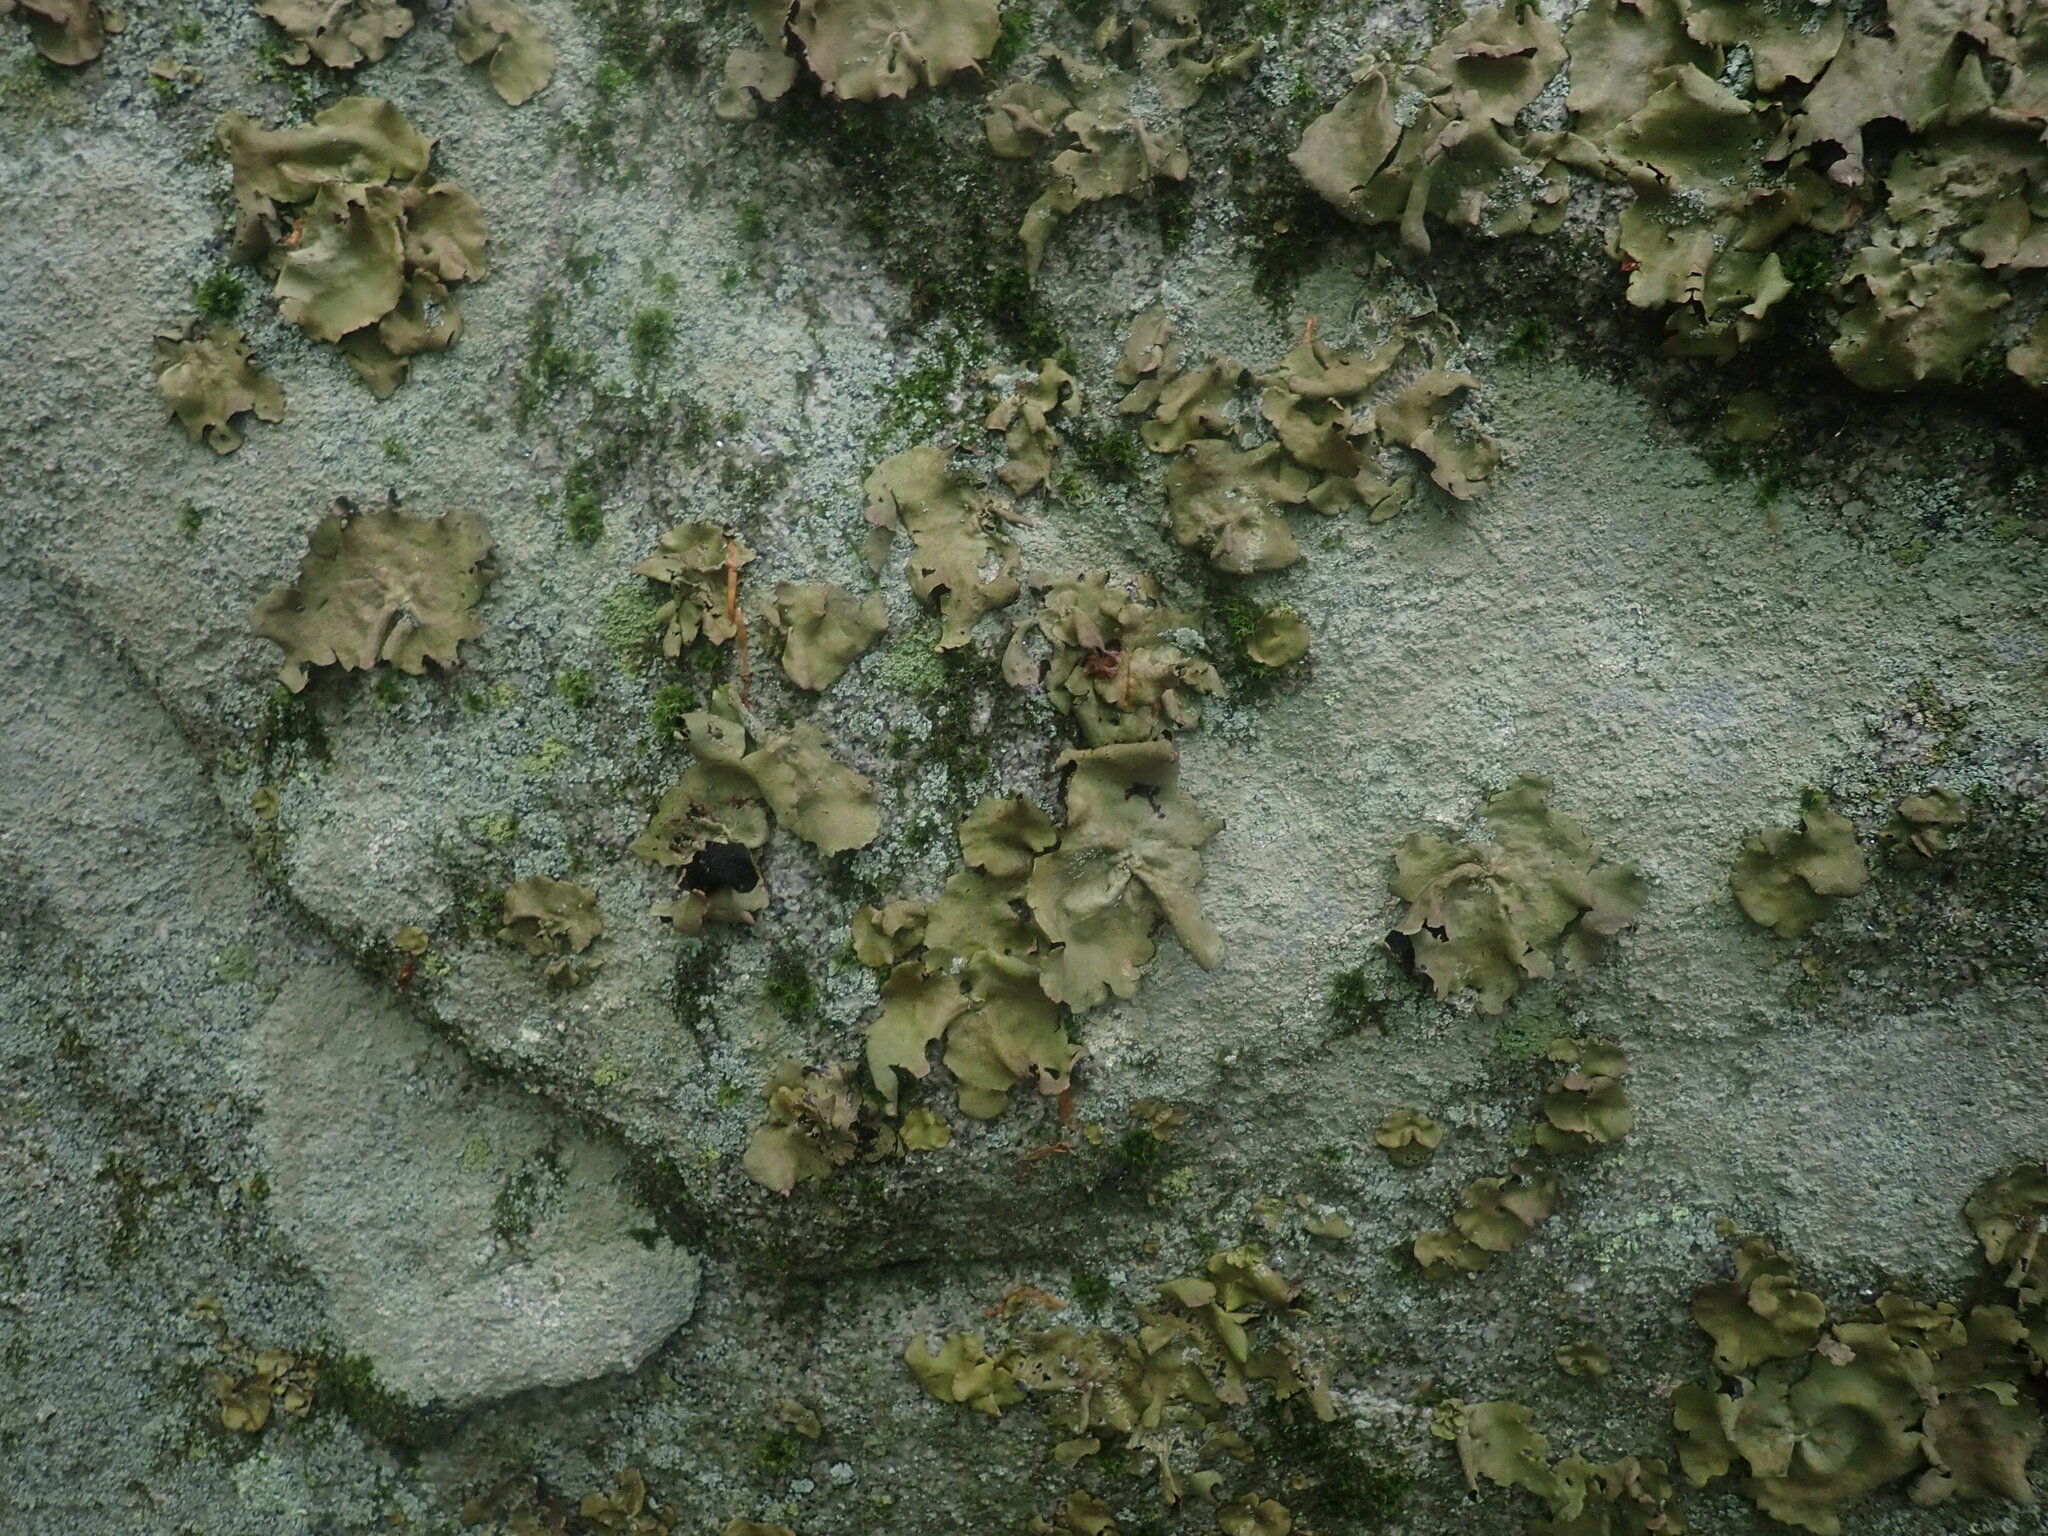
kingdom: Fungi
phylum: Ascomycota
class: Lecanoromycetes
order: Umbilicariales
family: Umbilicariaceae
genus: Umbilicaria
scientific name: Umbilicaria mammulata
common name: Smooth rock tripe
